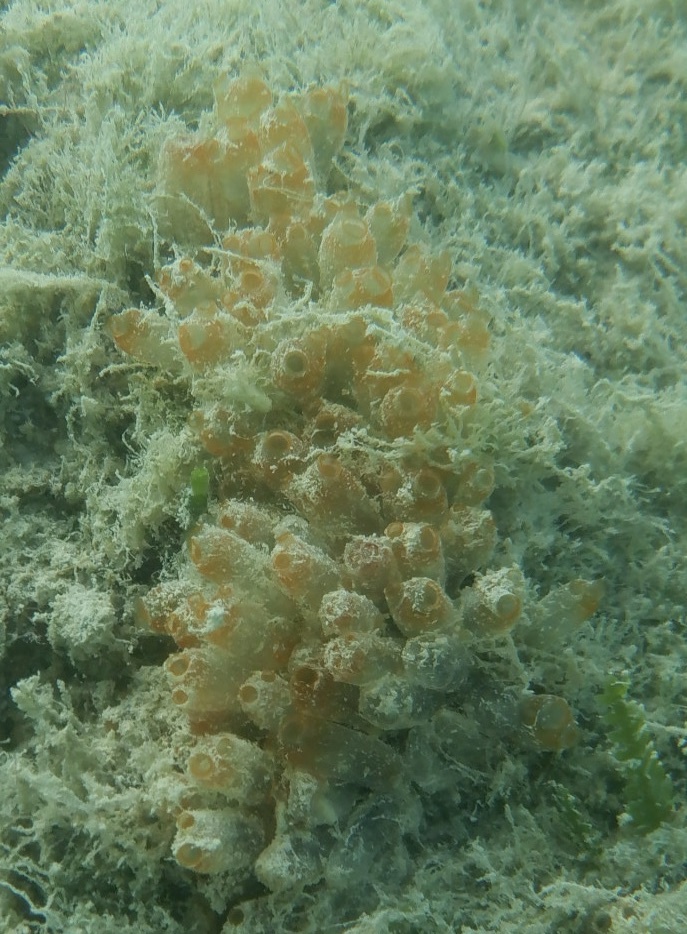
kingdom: Animalia
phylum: Chordata
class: Ascidiacea
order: Phlebobranchia
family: Perophoridae
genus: Ecteinascidia
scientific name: Ecteinascidia turbinata
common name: Mangrove tunicate
